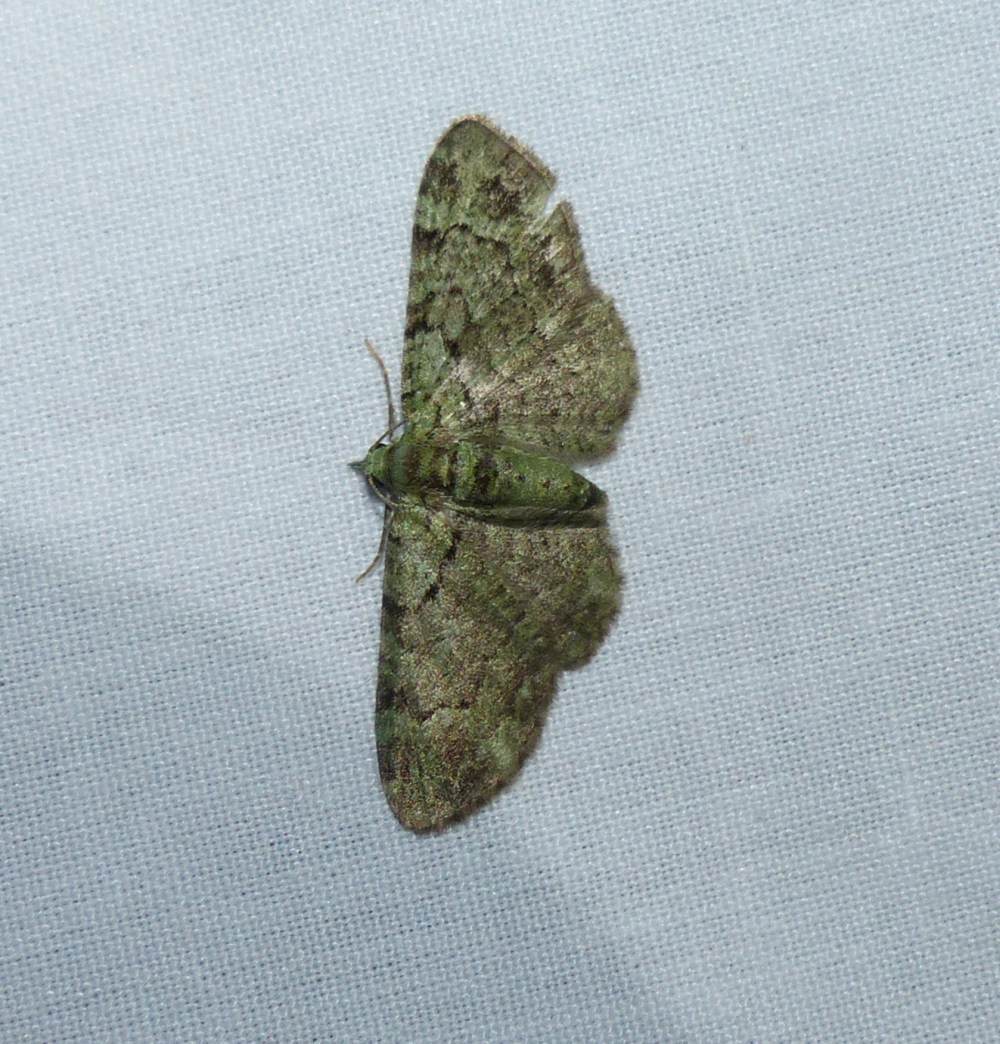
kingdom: Animalia
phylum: Arthropoda
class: Insecta
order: Lepidoptera
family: Geometridae
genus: Pasiphila
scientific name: Pasiphila rectangulata
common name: Green pug
